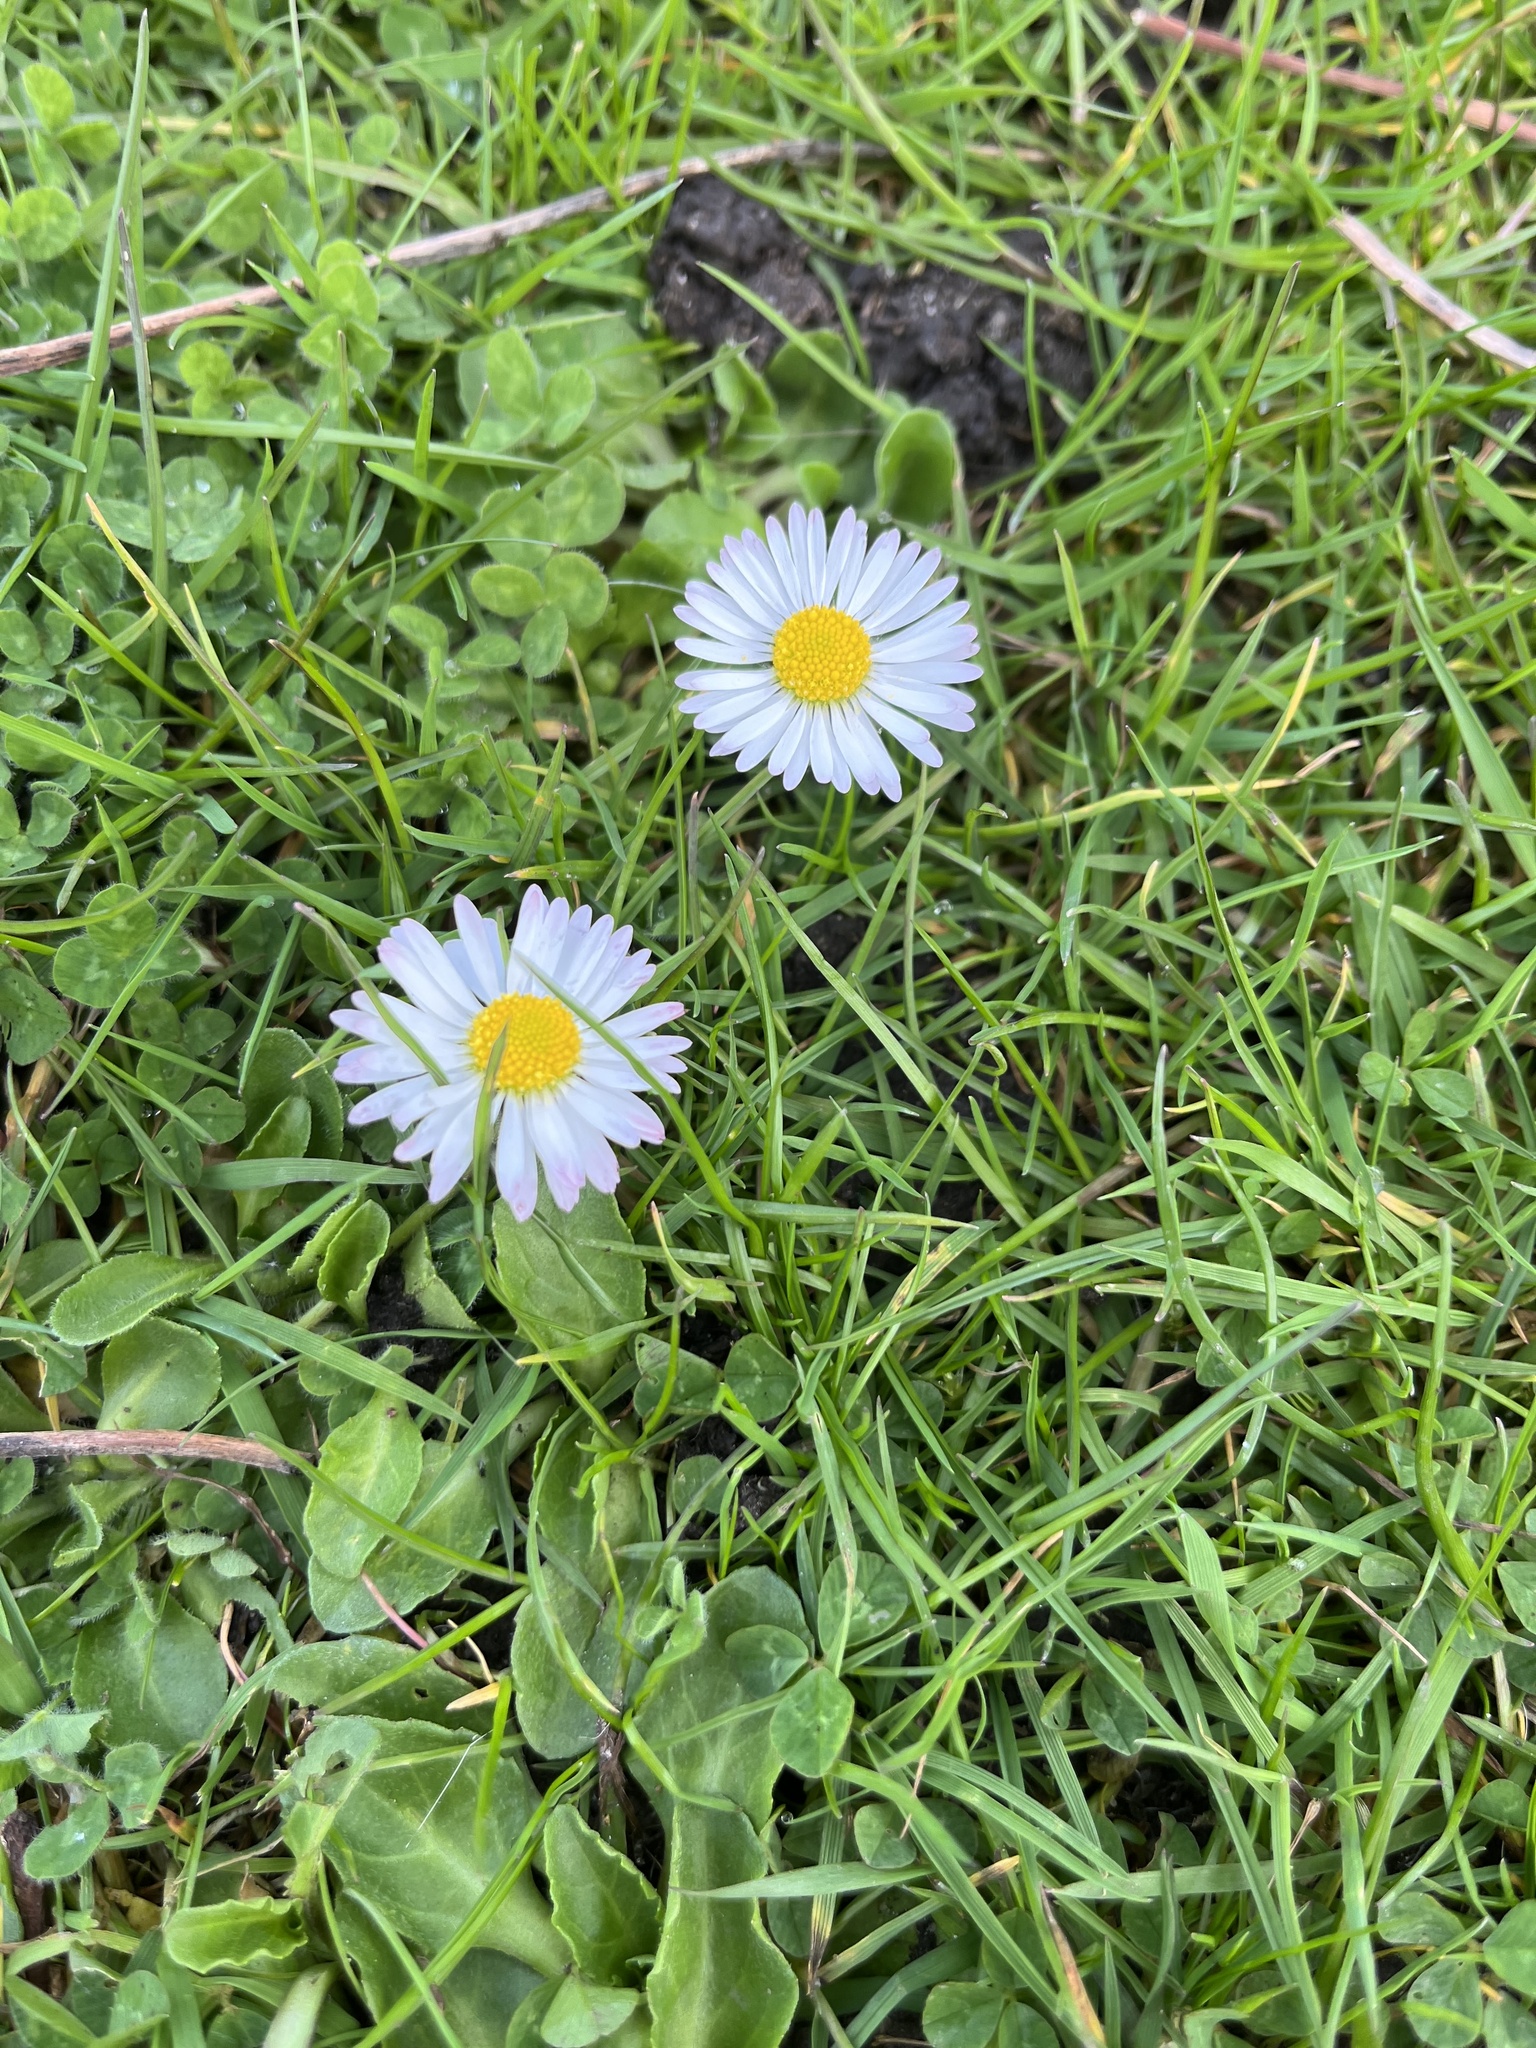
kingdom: Plantae
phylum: Tracheophyta
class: Magnoliopsida
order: Asterales
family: Asteraceae
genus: Bellis
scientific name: Bellis perennis
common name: Lawndaisy
